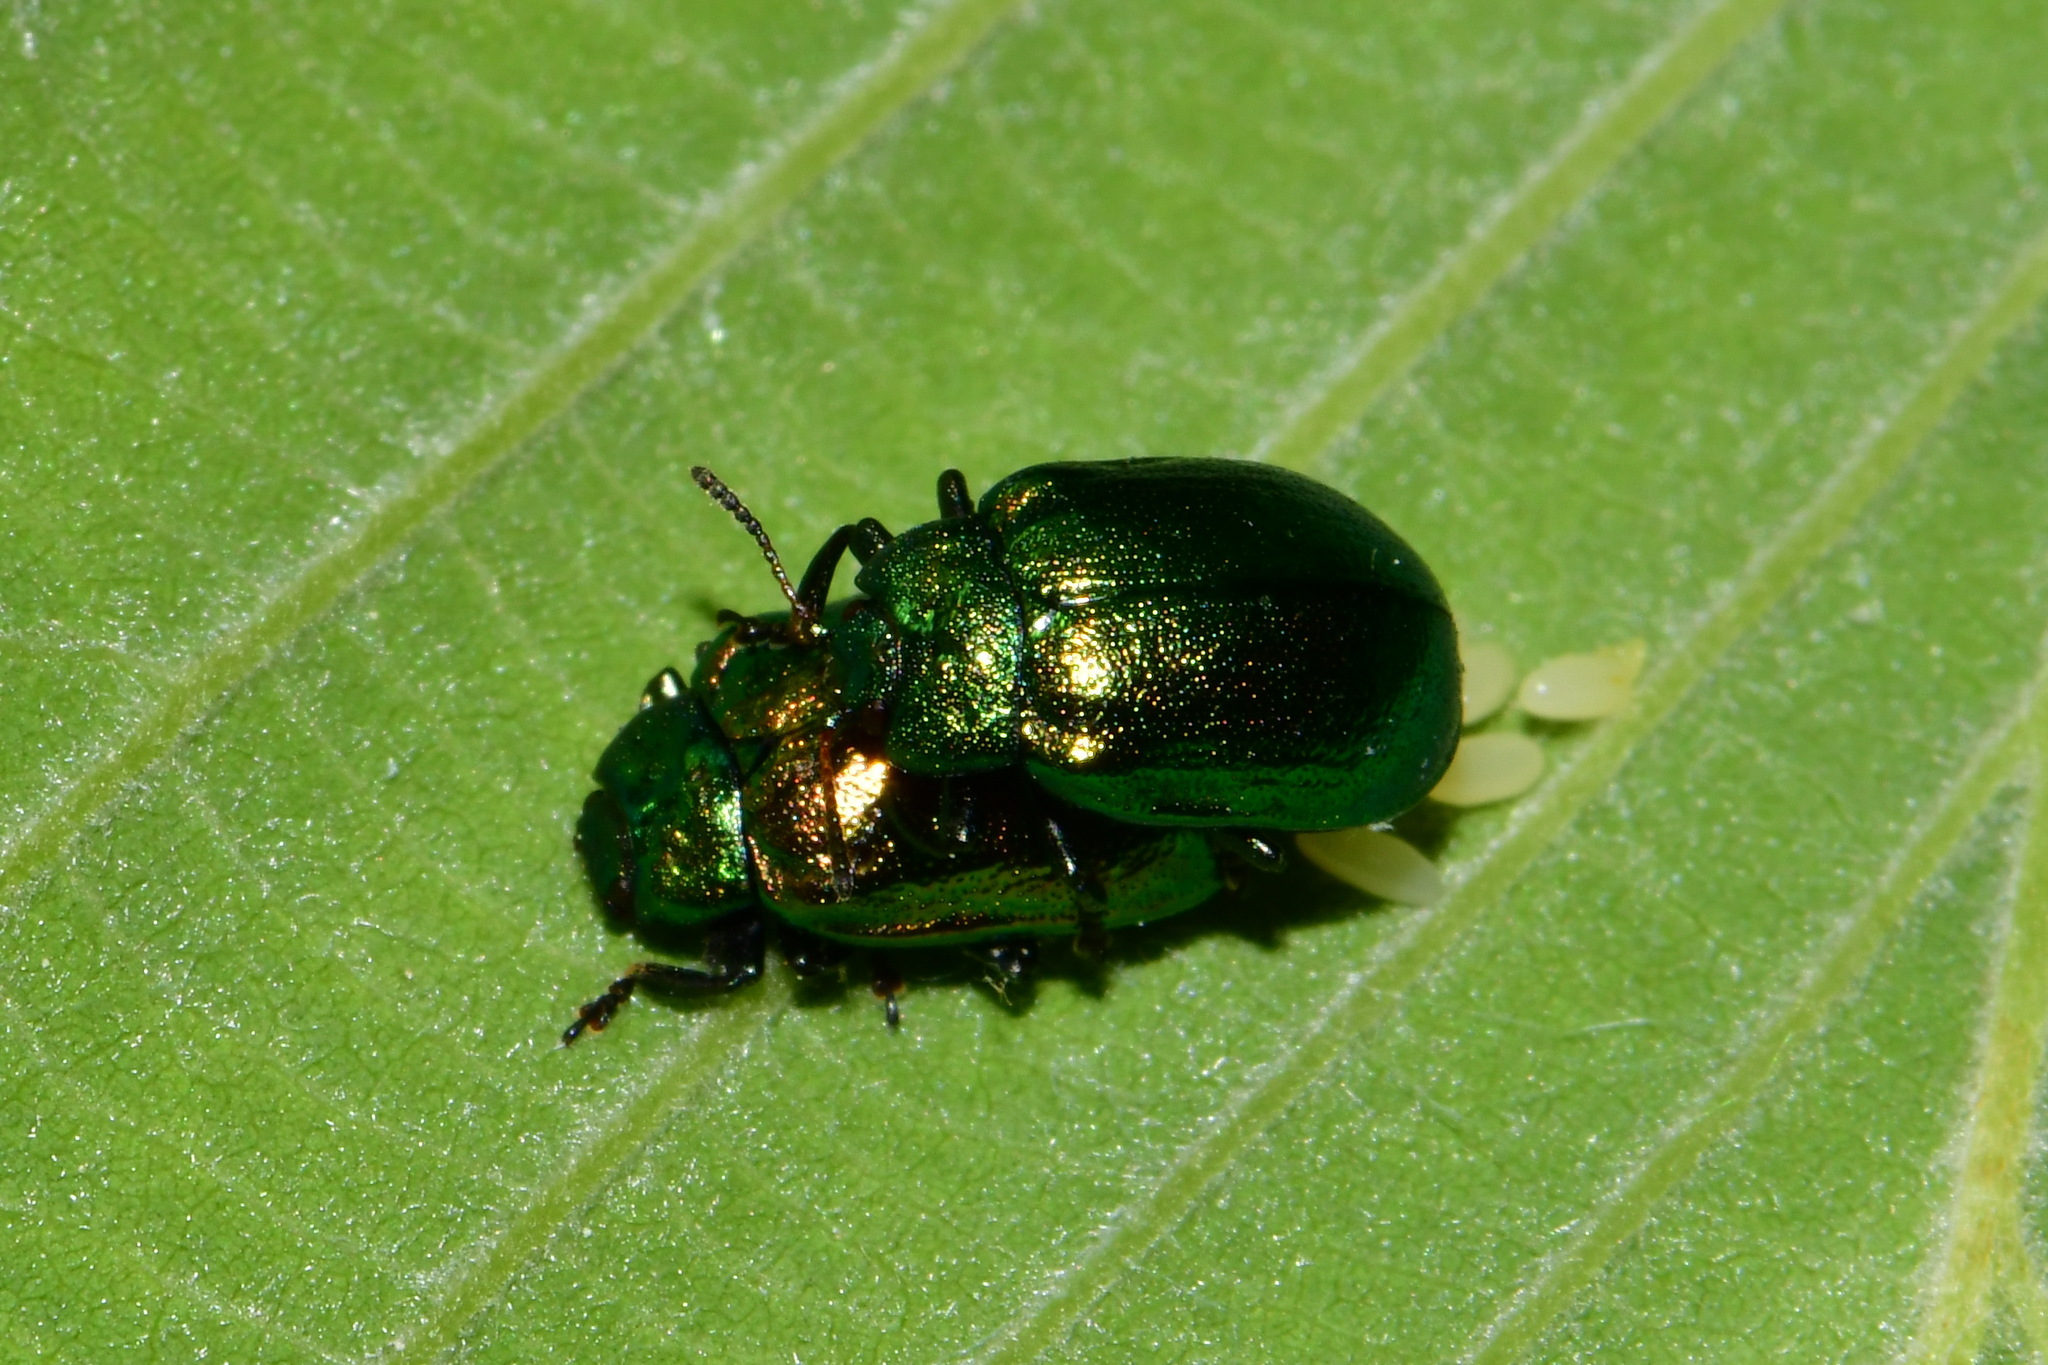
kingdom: Animalia
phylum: Arthropoda
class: Insecta
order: Coleoptera
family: Chrysomelidae
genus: Plagiosterna
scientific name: Plagiosterna aenea
